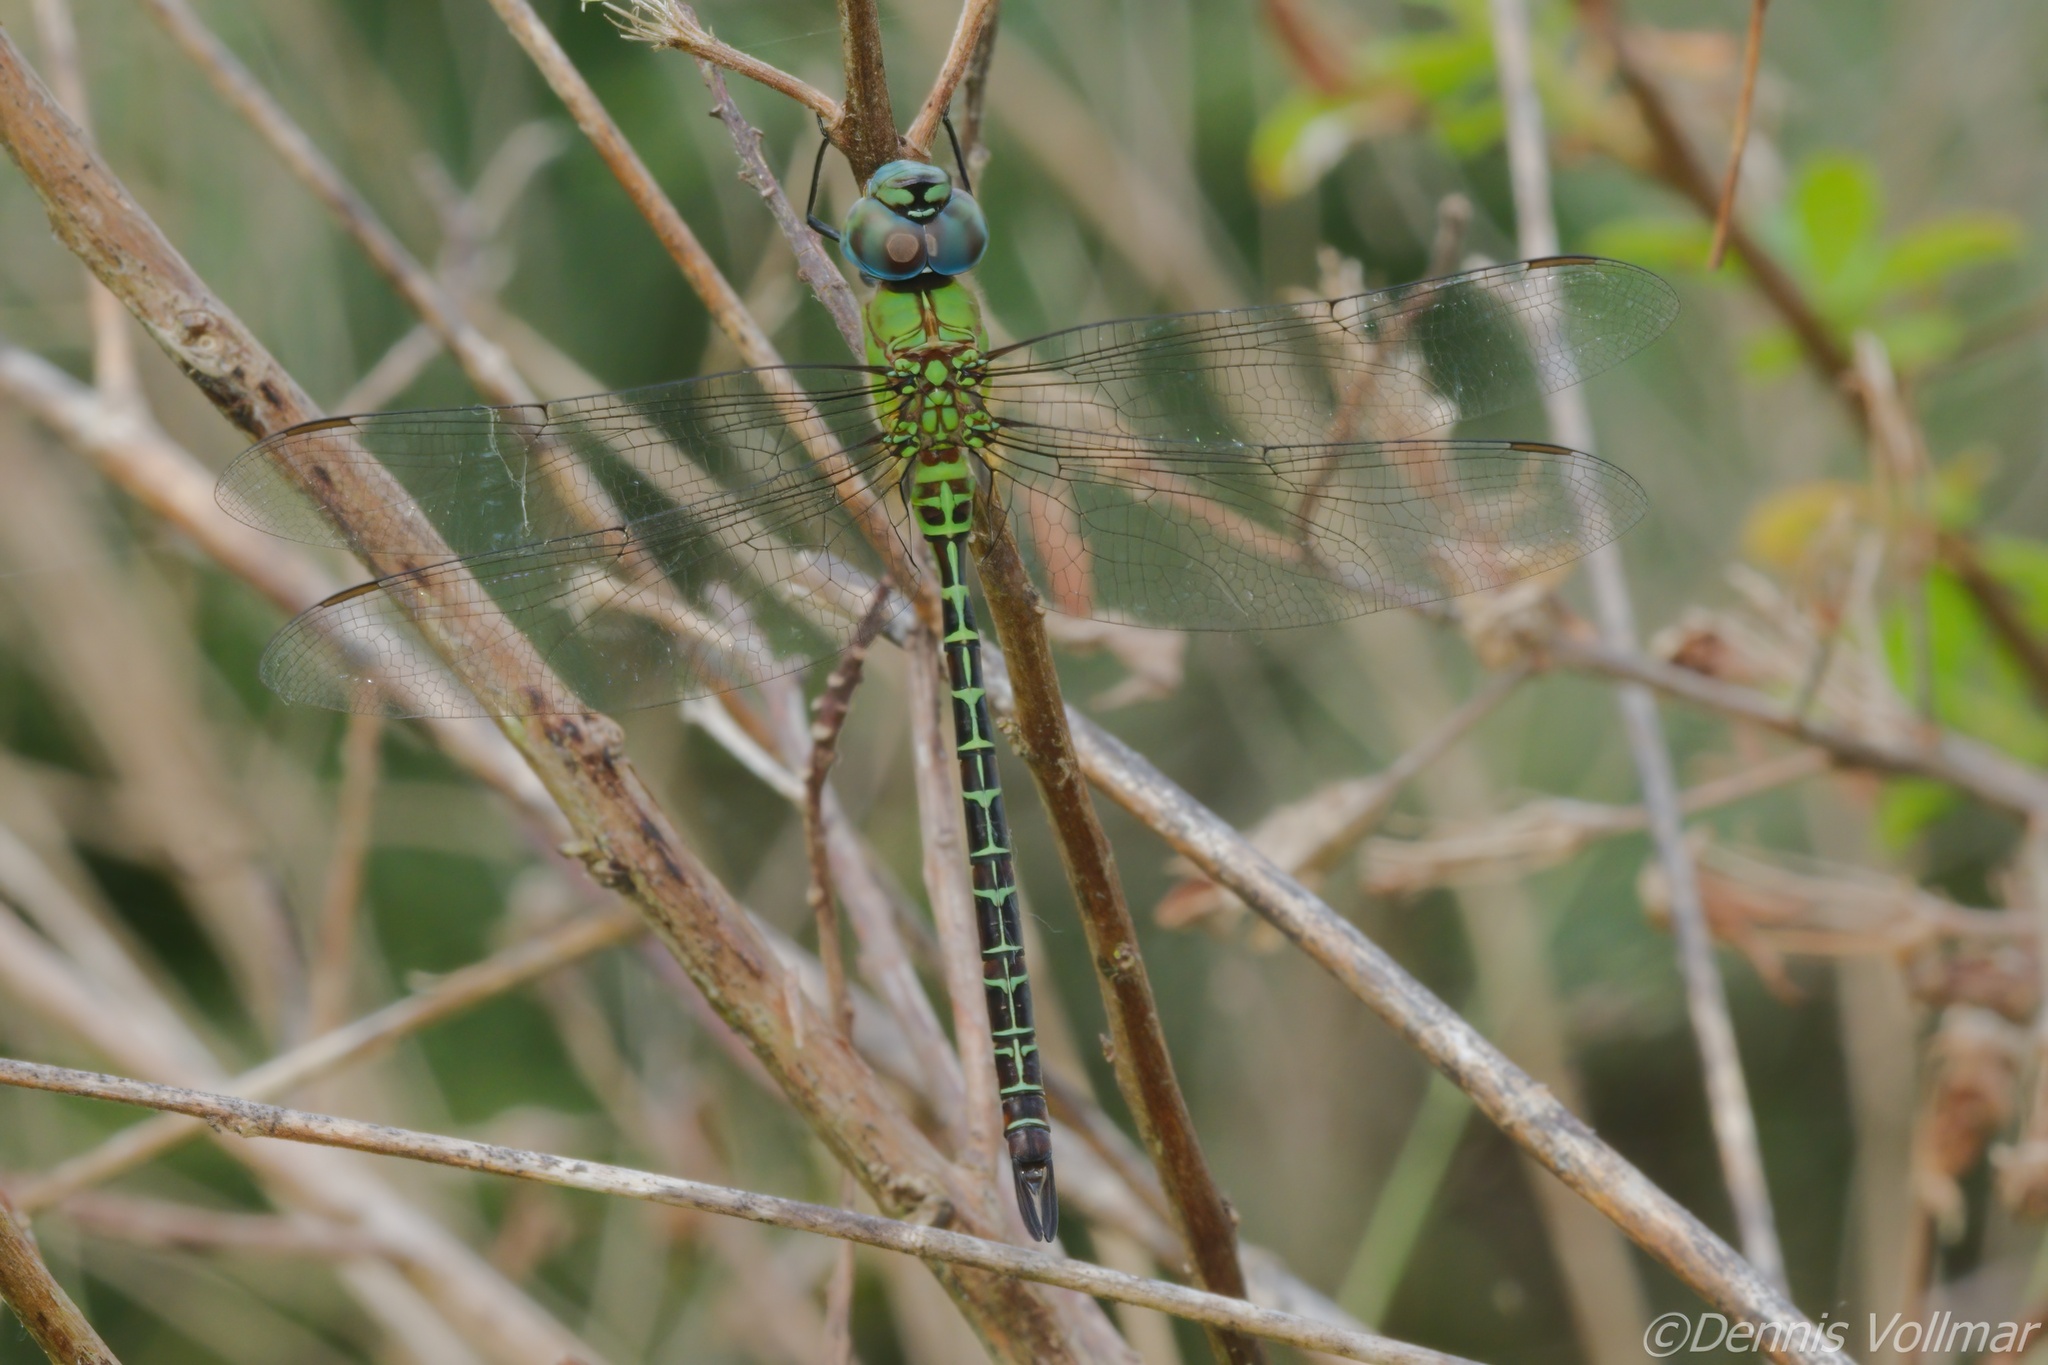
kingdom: Animalia
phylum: Arthropoda
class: Insecta
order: Odonata
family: Aeshnidae
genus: Coryphaeschna
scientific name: Coryphaeschna adnexa
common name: Blue-faced darner
